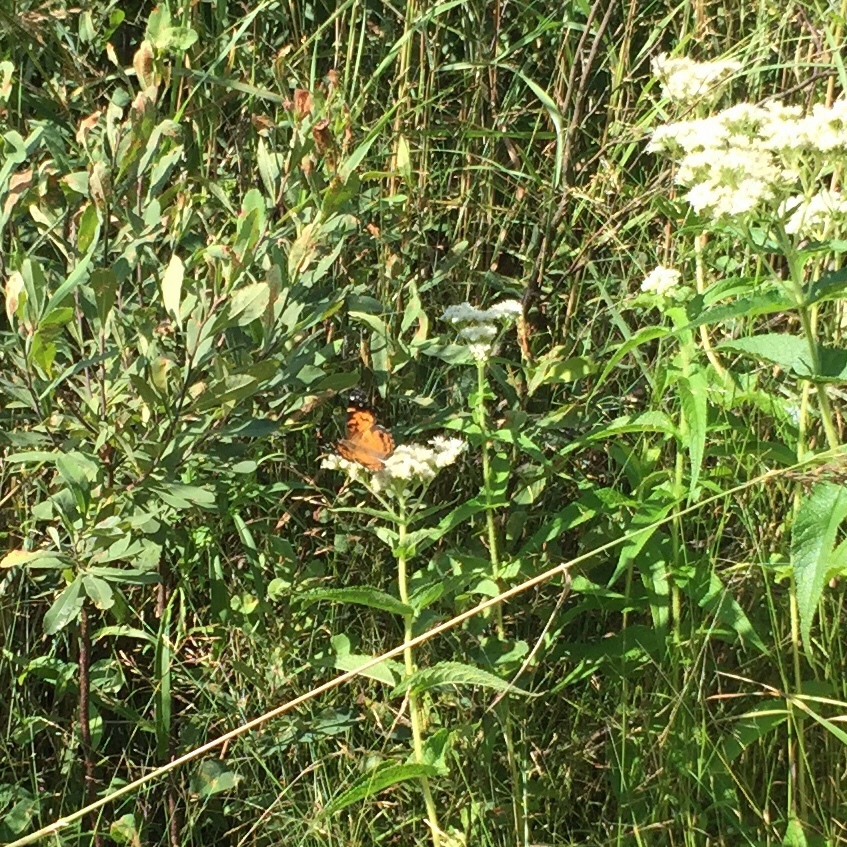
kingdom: Animalia
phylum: Arthropoda
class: Insecta
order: Lepidoptera
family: Nymphalidae
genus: Vanessa
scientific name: Vanessa virginiensis
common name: American lady
